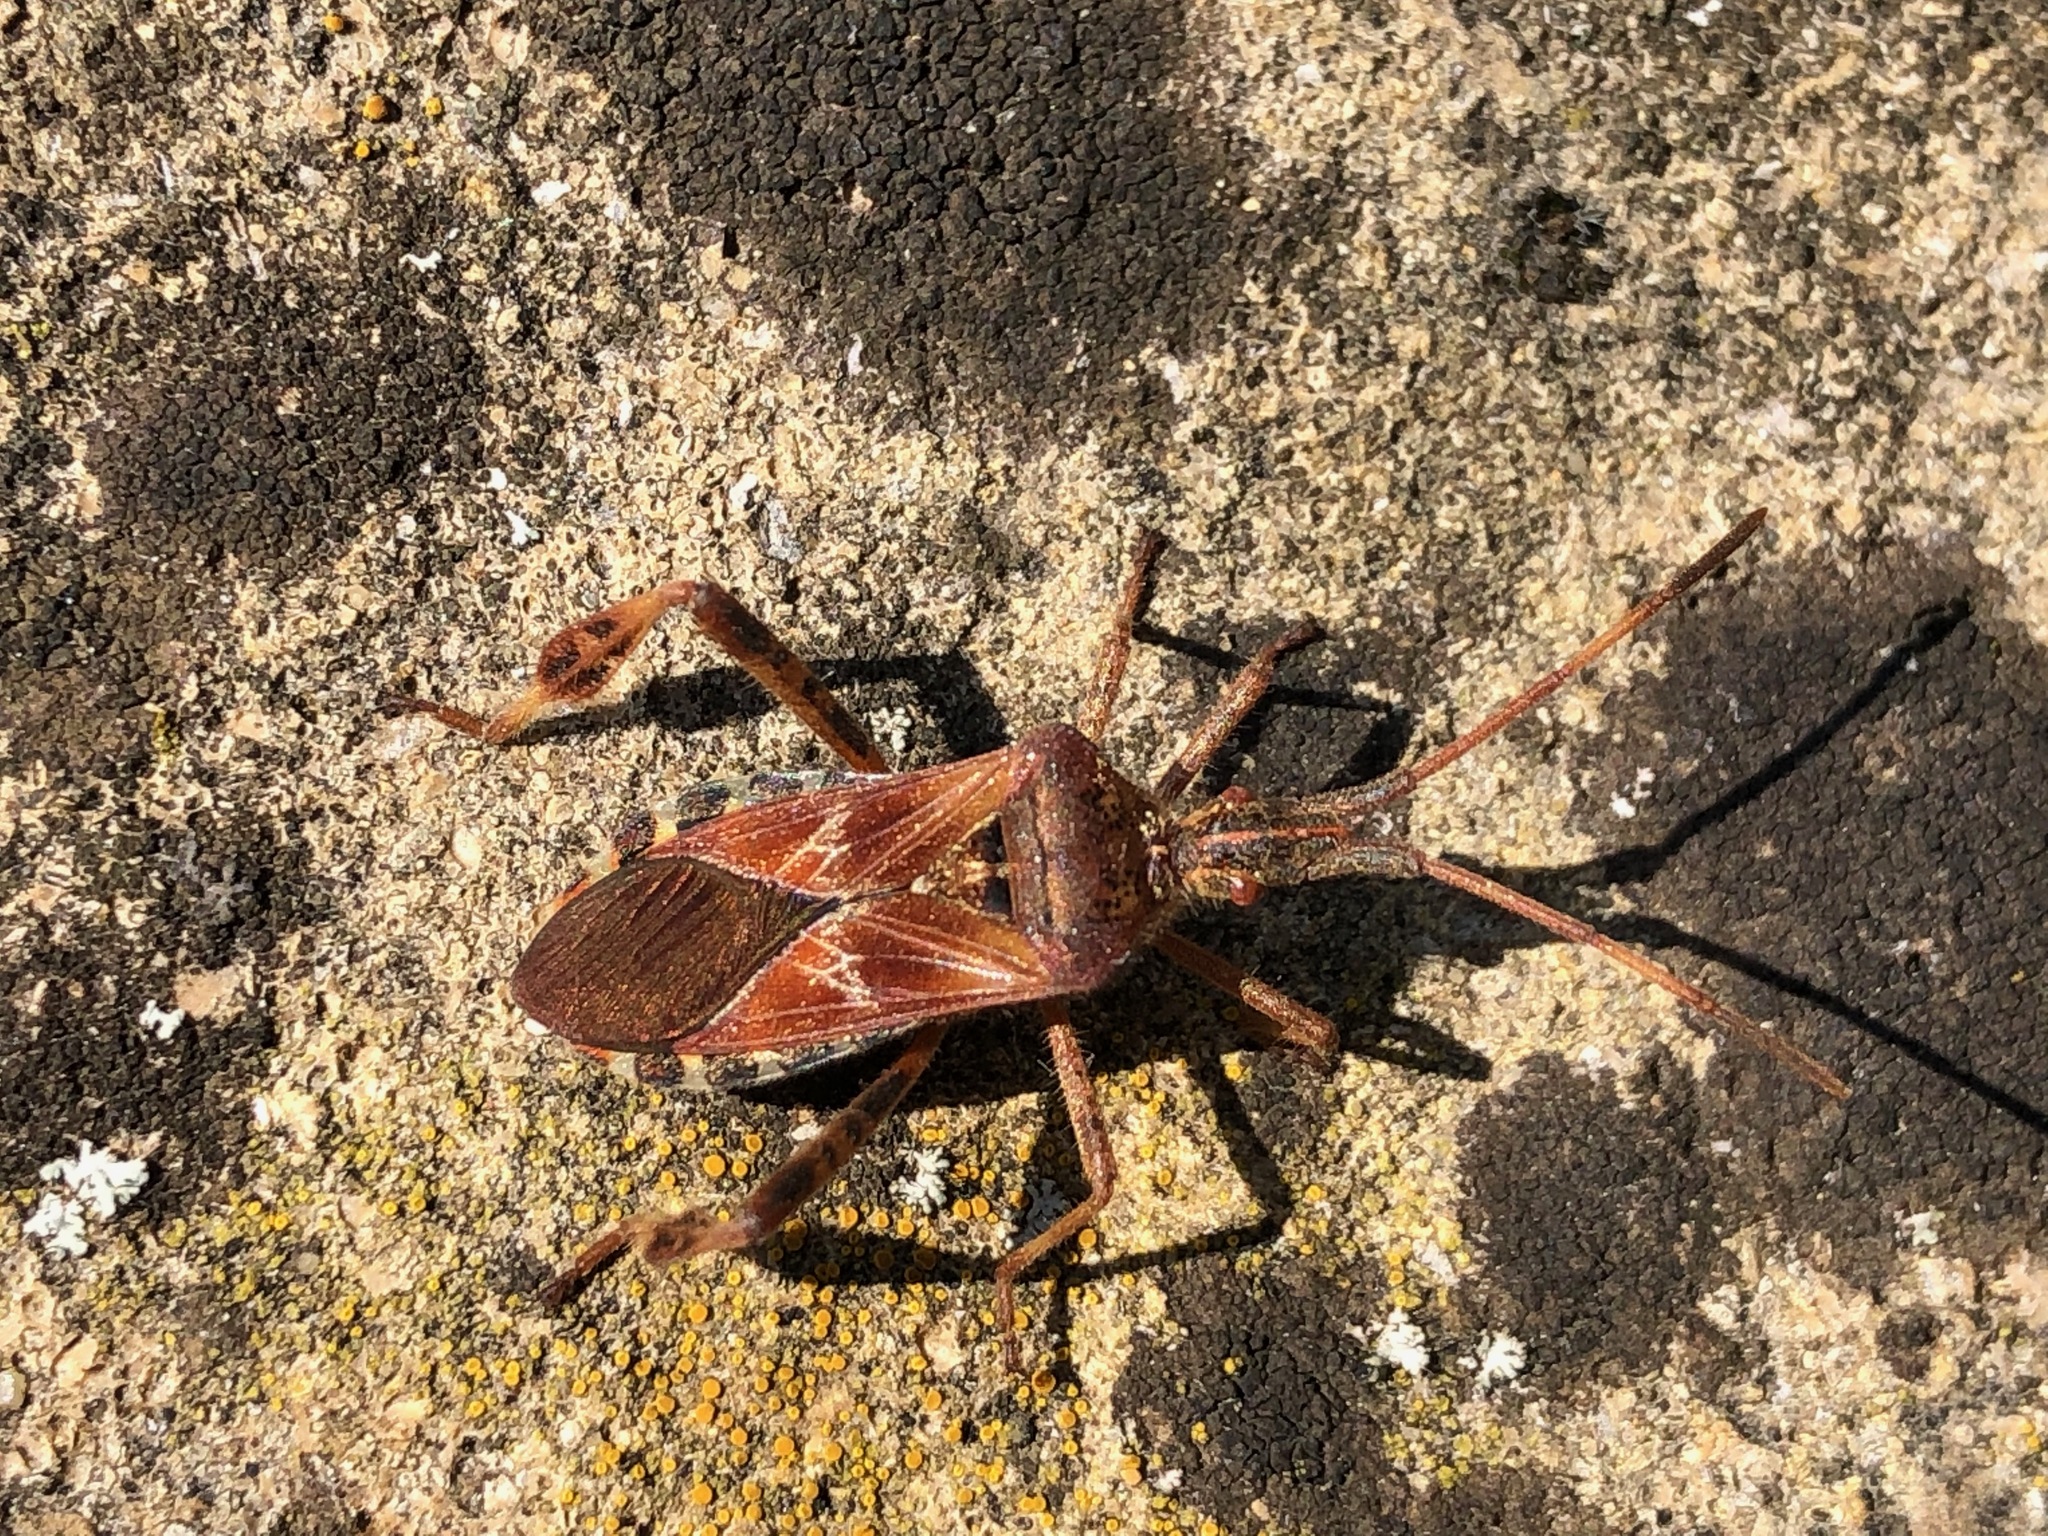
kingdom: Animalia
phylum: Arthropoda
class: Insecta
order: Hemiptera
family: Coreidae
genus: Leptoglossus
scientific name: Leptoglossus occidentalis
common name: Western conifer-seed bug
